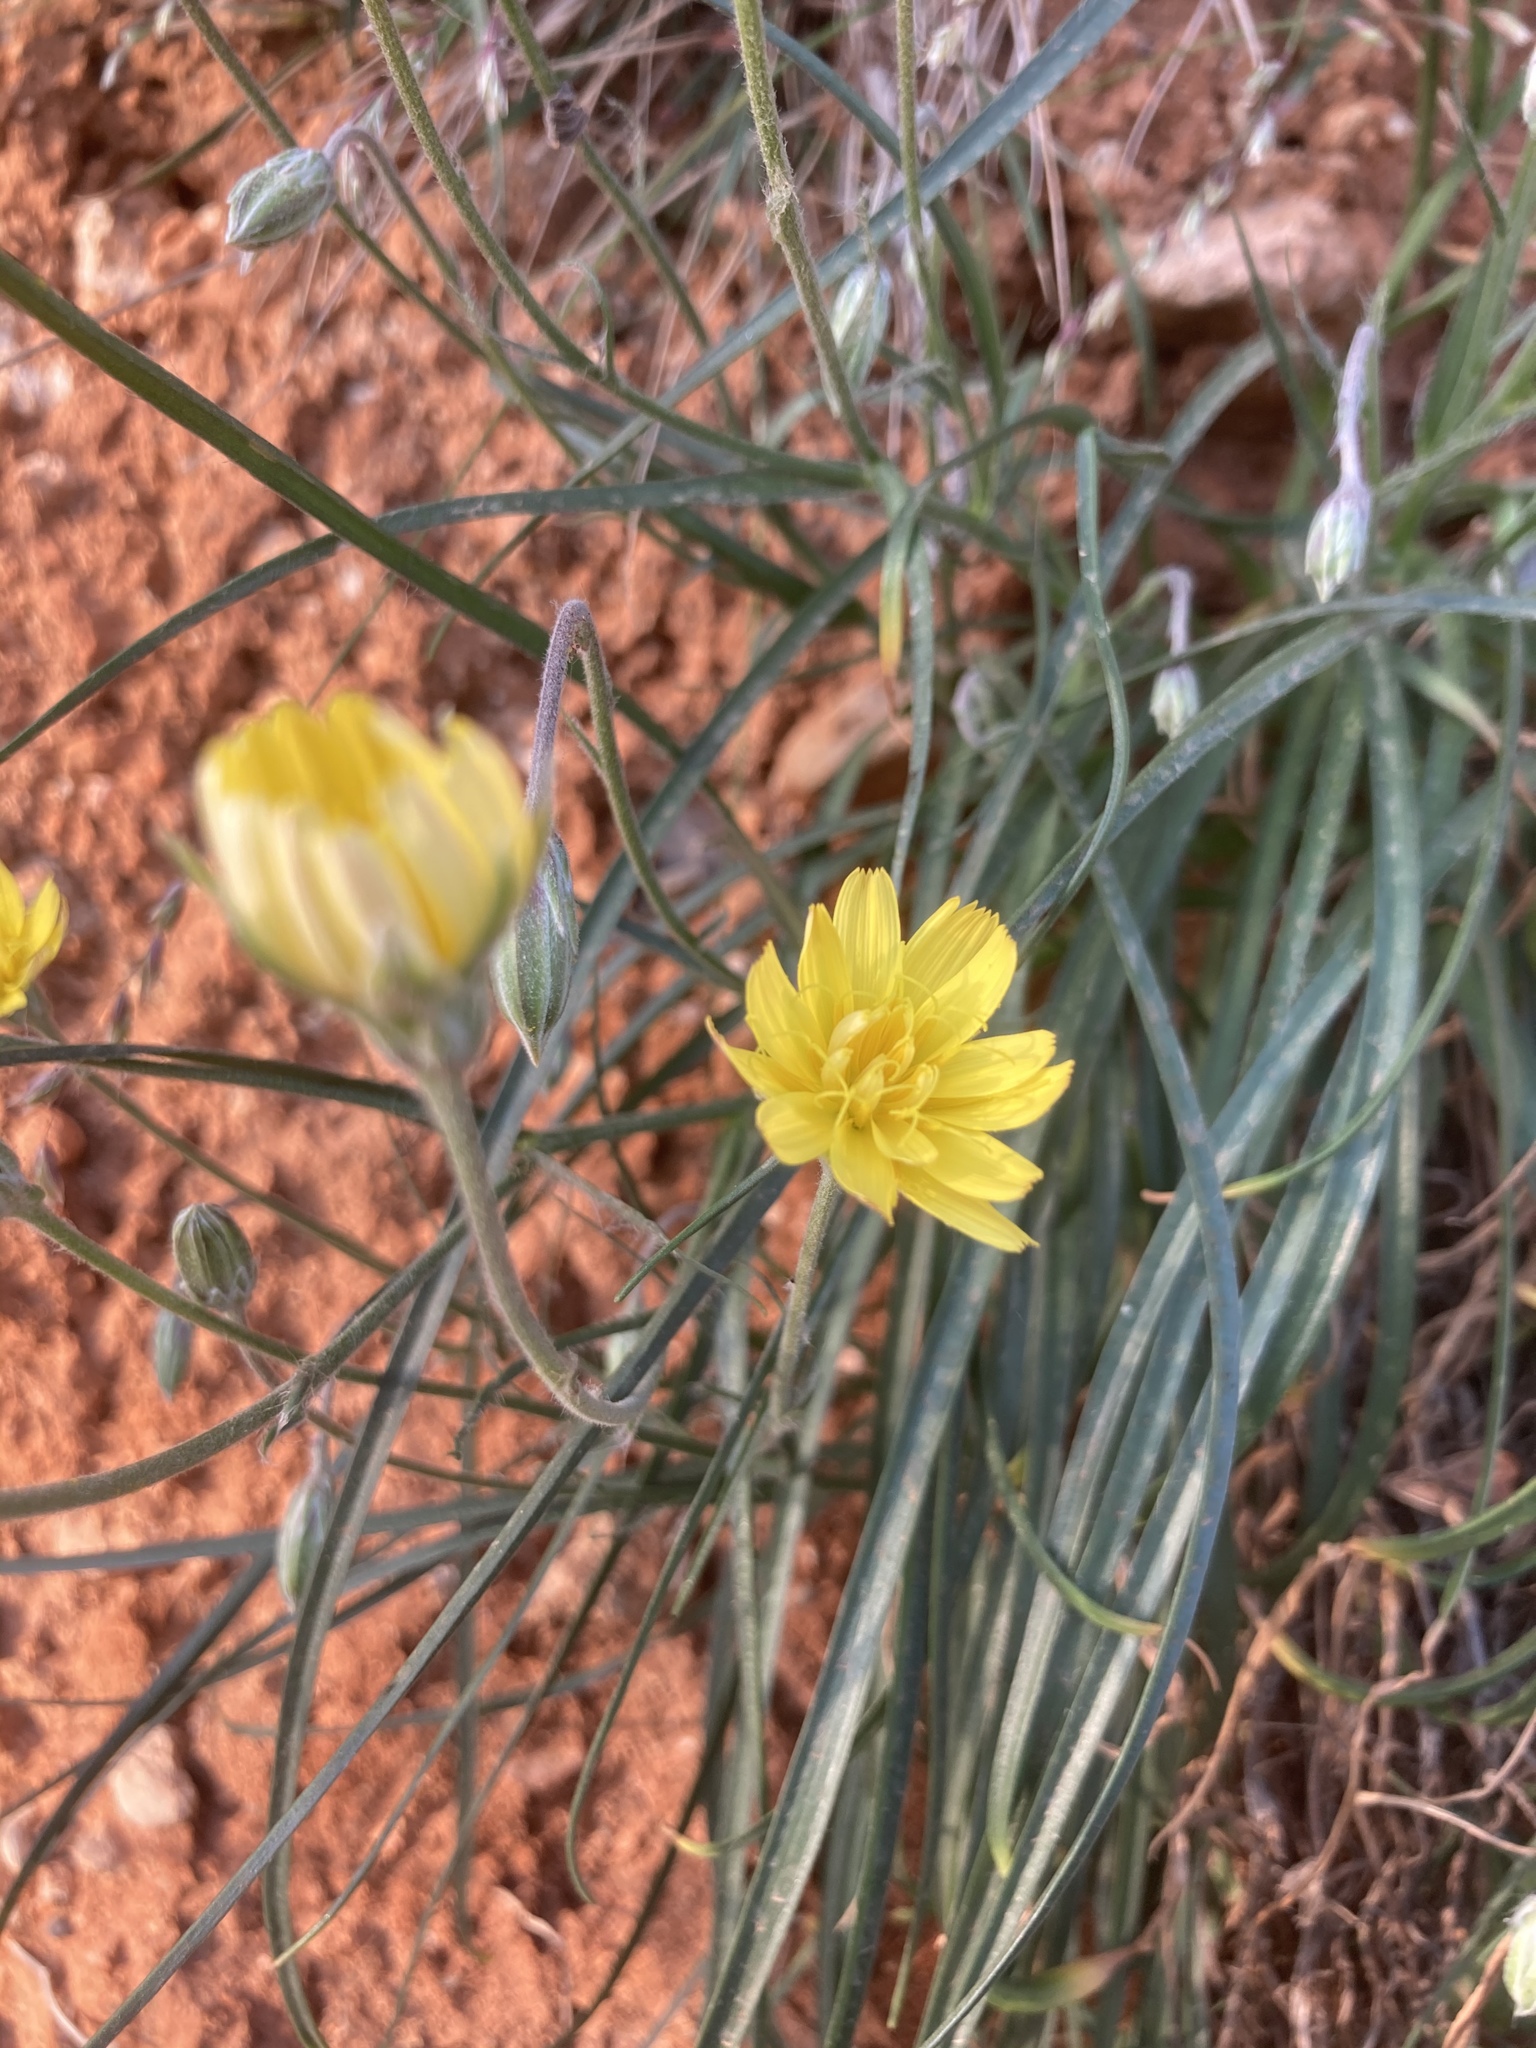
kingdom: Plantae
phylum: Tracheophyta
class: Magnoliopsida
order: Asterales
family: Asteraceae
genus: Gelasia
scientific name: Gelasia cretica
